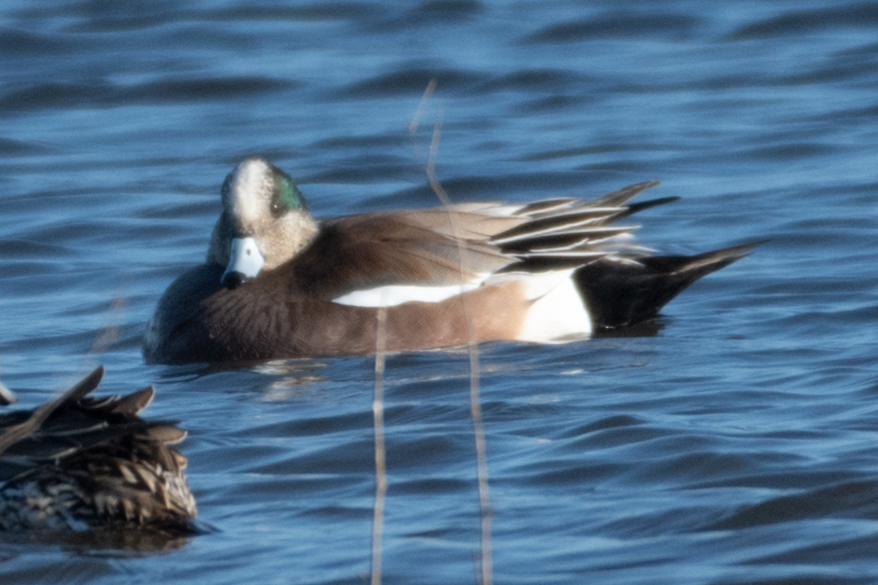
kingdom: Animalia
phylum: Chordata
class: Aves
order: Anseriformes
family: Anatidae
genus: Mareca
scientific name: Mareca americana
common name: American wigeon
